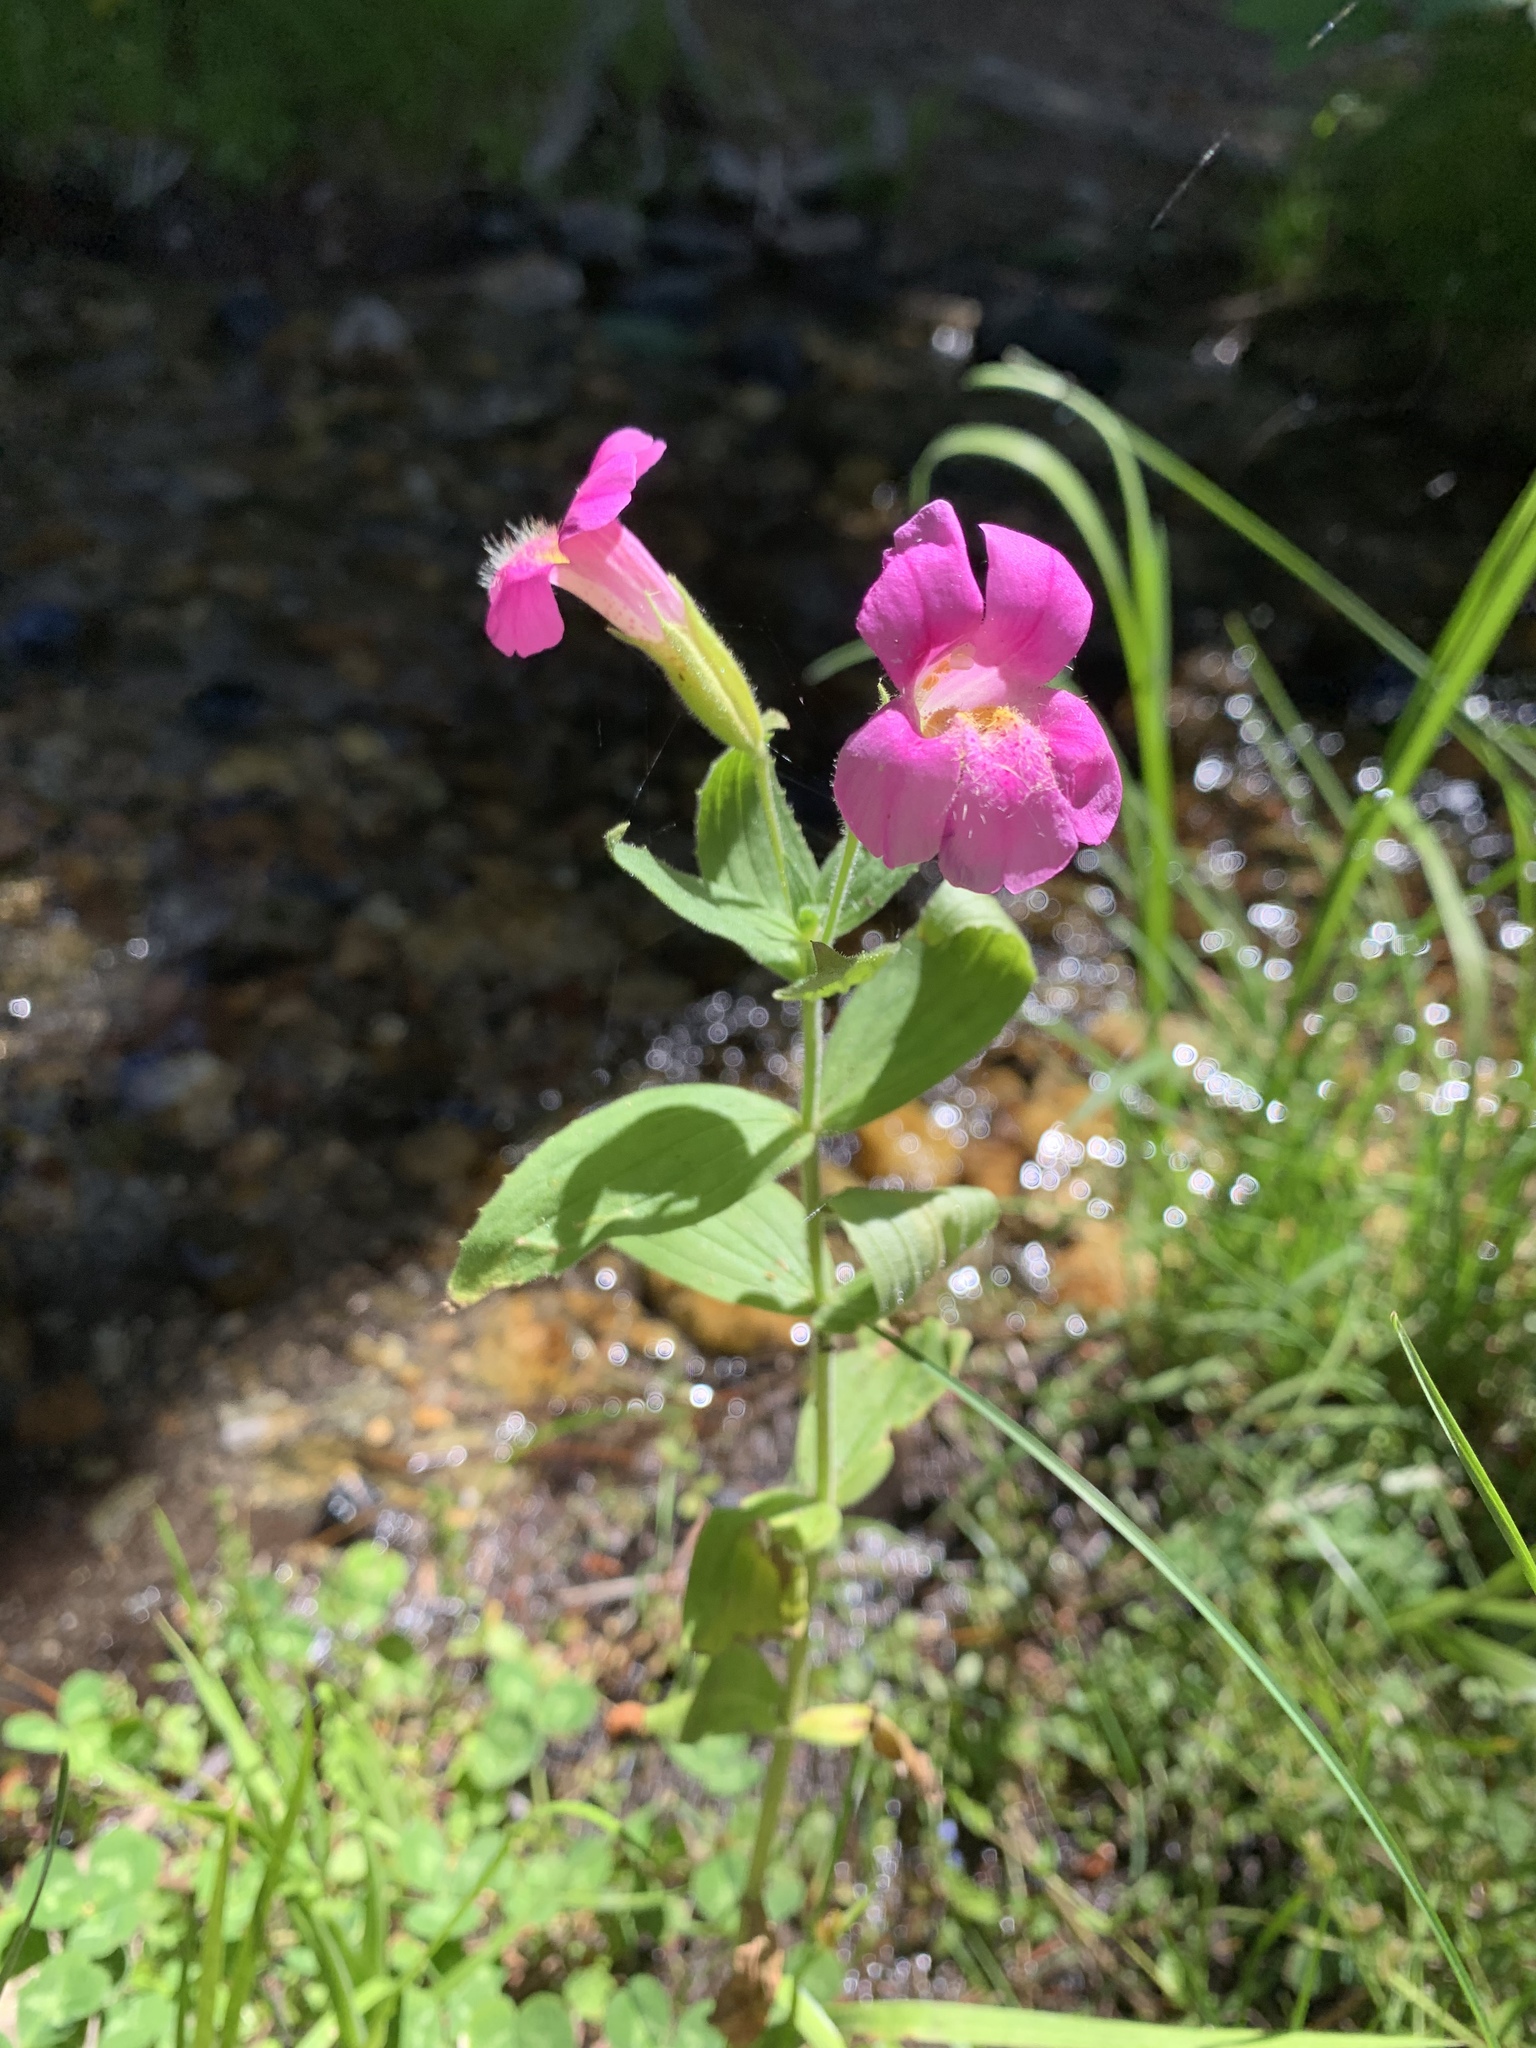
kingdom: Plantae
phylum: Tracheophyta
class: Magnoliopsida
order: Lamiales
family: Phrymaceae
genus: Erythranthe
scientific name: Erythranthe lewisii
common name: Lewis's monkey-flower
